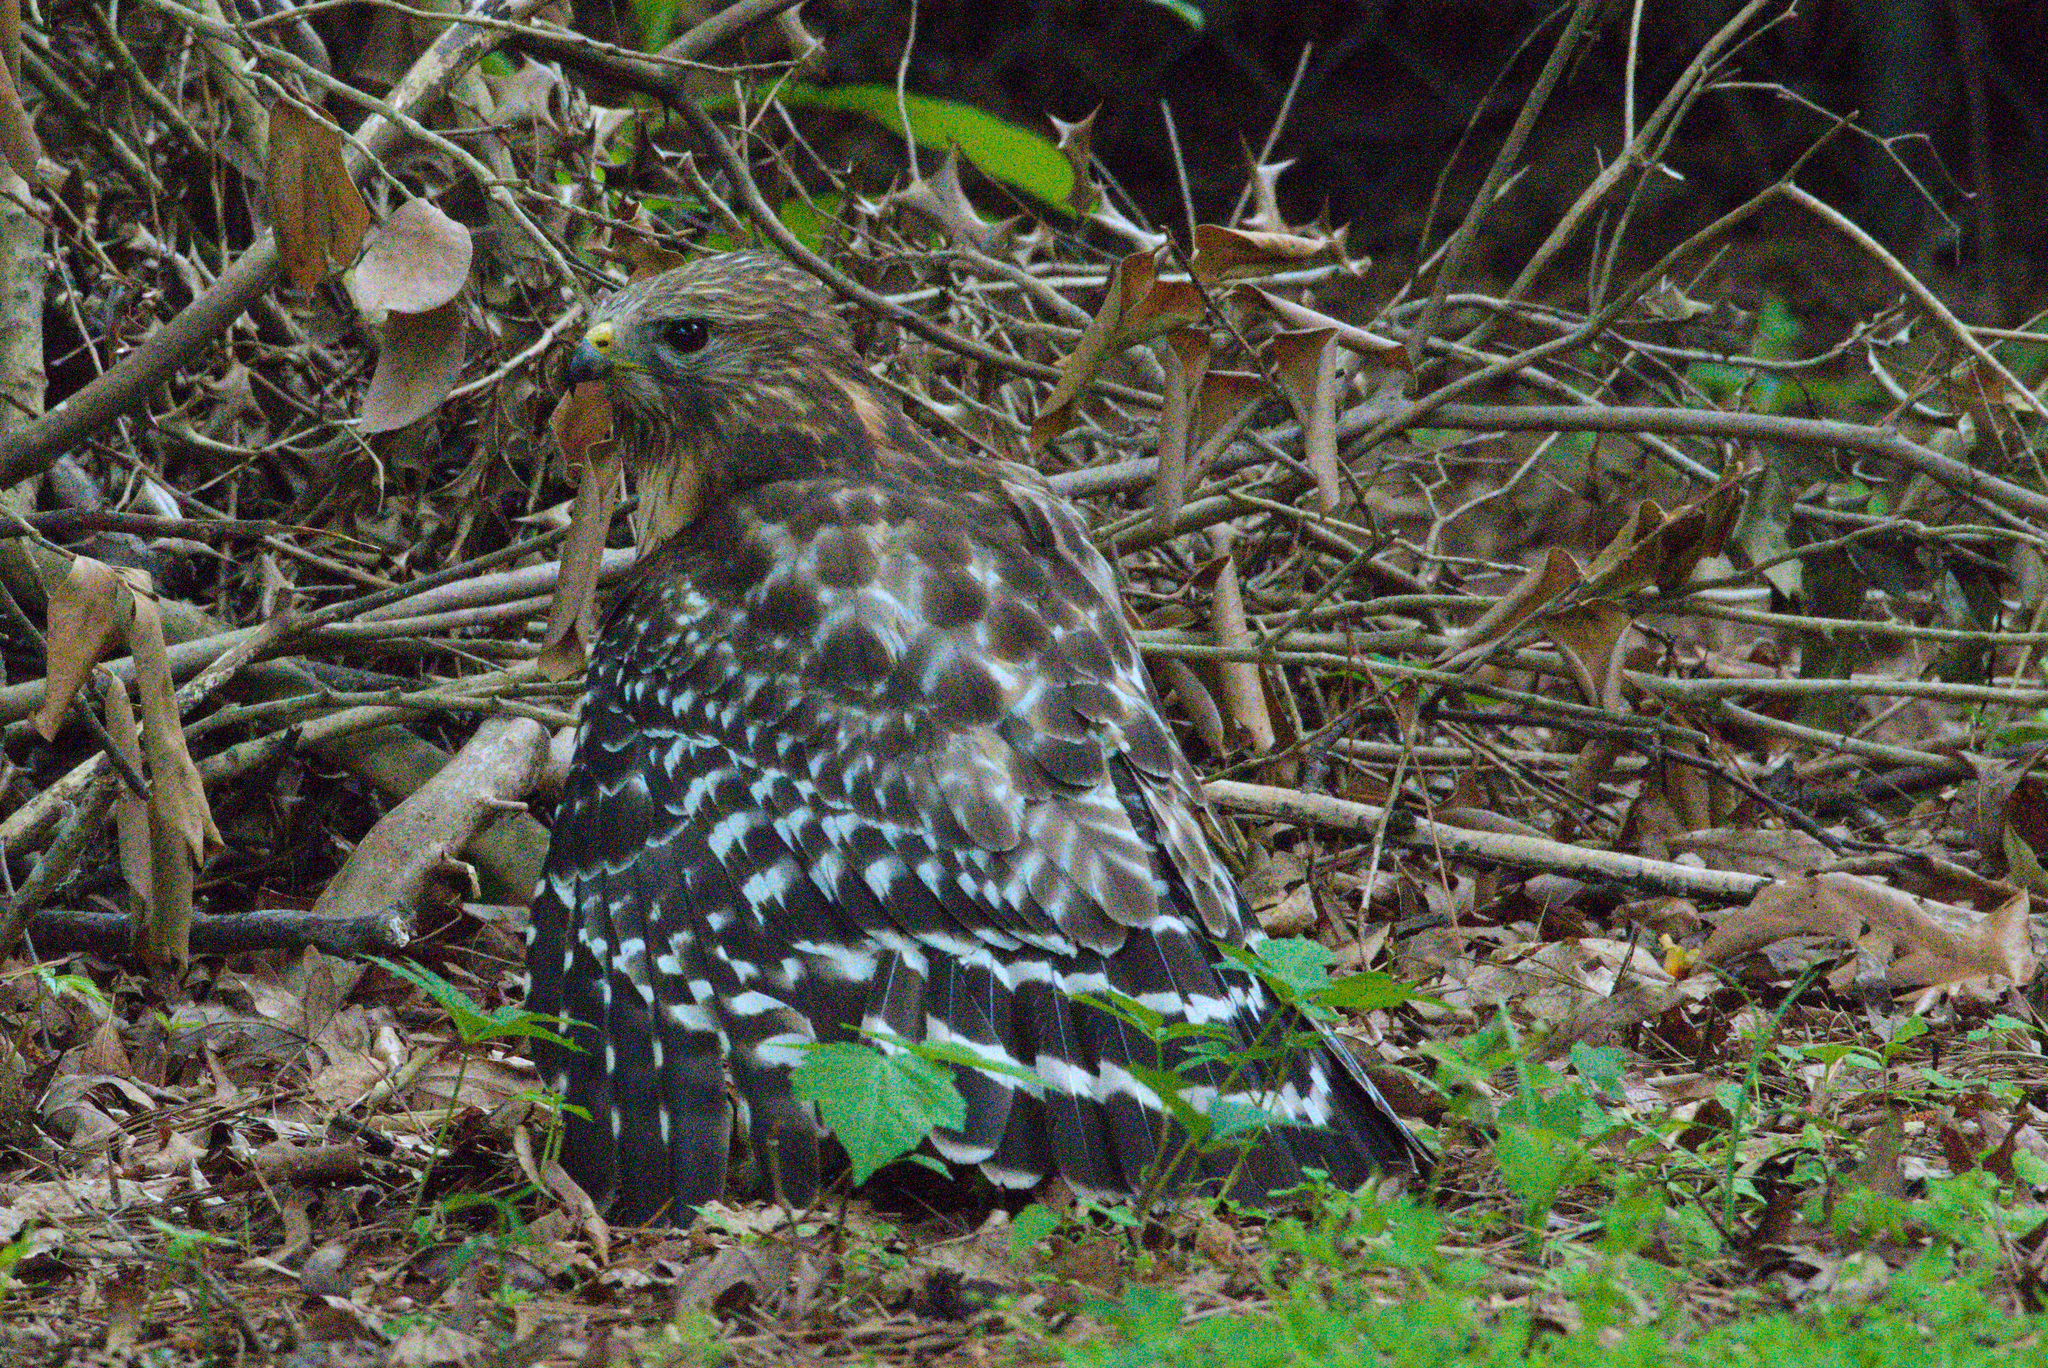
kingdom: Animalia
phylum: Chordata
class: Aves
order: Accipitriformes
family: Accipitridae
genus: Buteo
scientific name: Buteo lineatus
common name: Red-shouldered hawk
